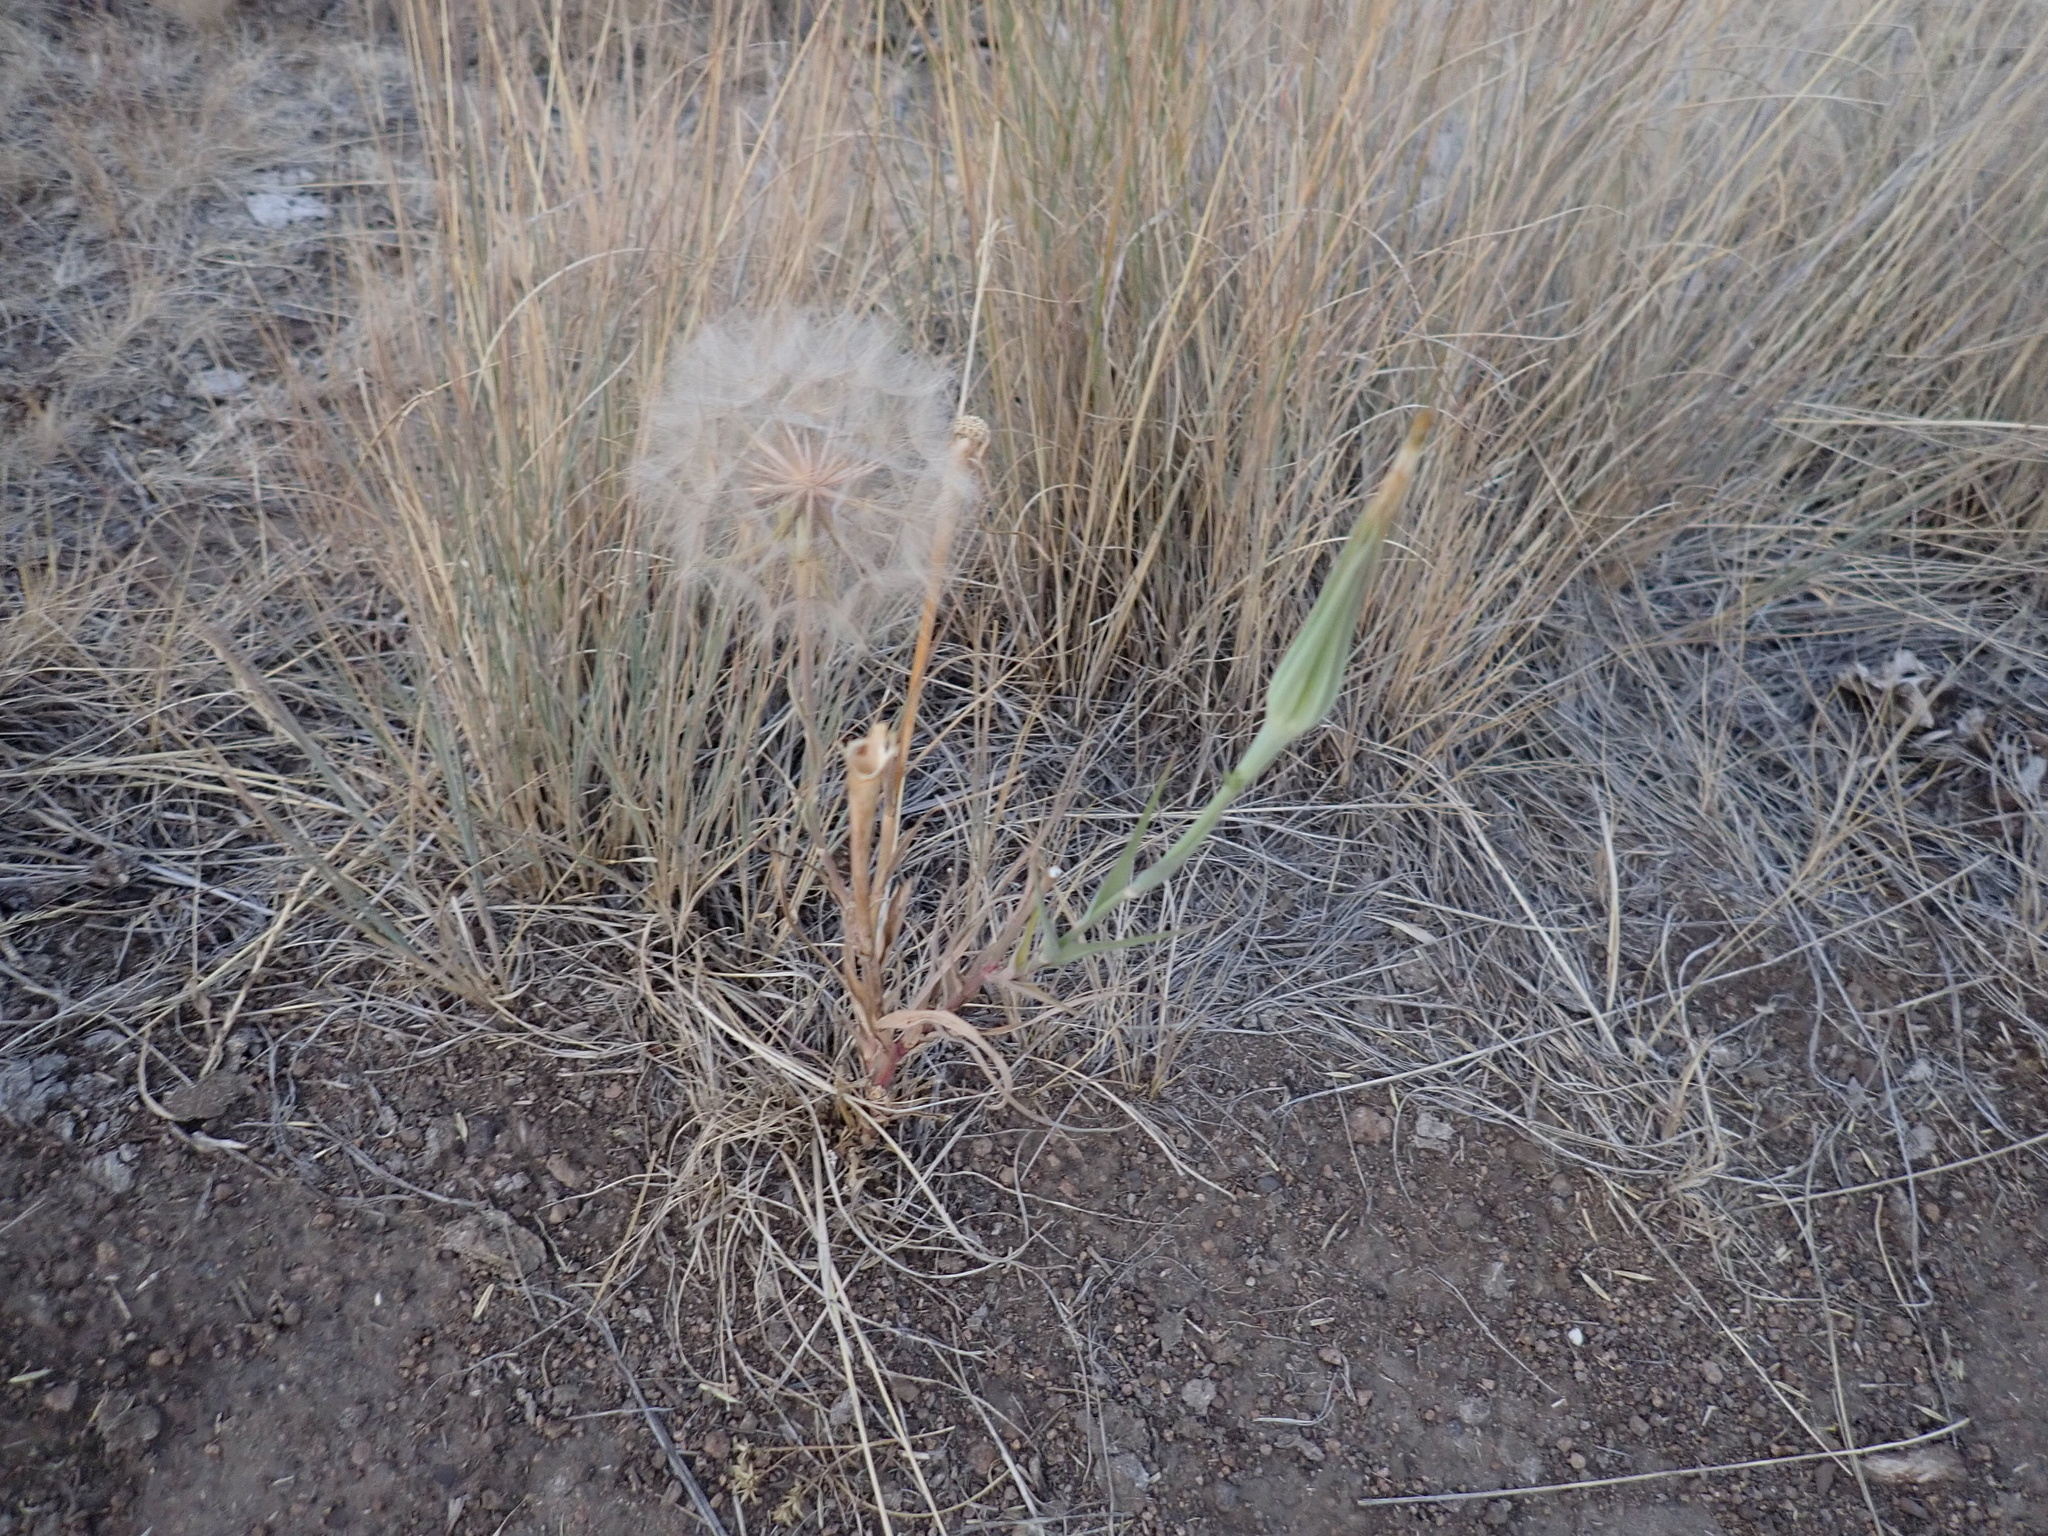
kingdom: Plantae
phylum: Tracheophyta
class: Magnoliopsida
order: Asterales
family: Asteraceae
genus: Tragopogon
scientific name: Tragopogon dubius
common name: Yellow salsify
